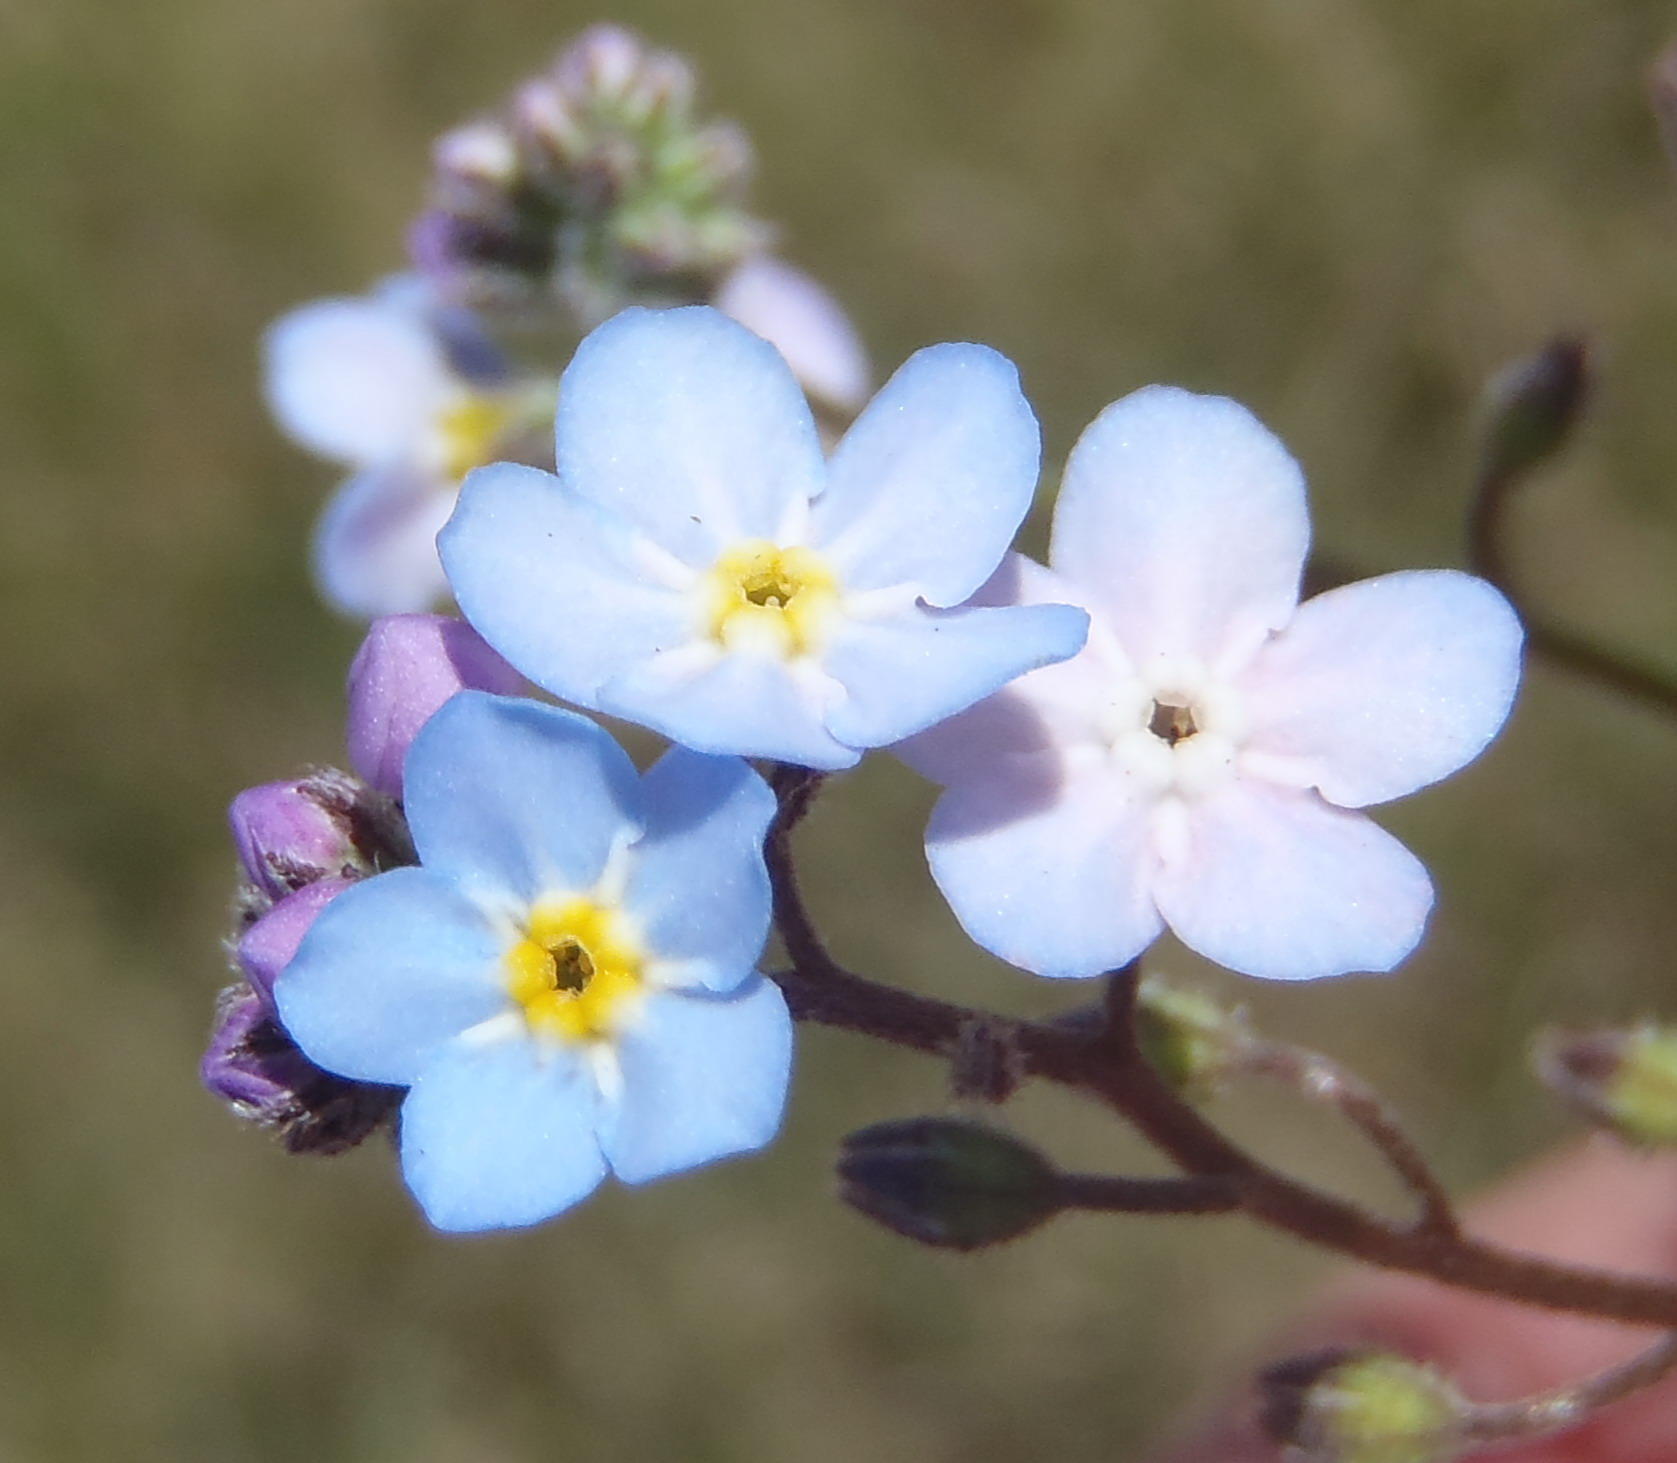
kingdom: Plantae
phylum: Tracheophyta
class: Magnoliopsida
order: Boraginales
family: Boraginaceae
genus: Myosotis
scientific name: Myosotis arvensis
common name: Field forget-me-not
